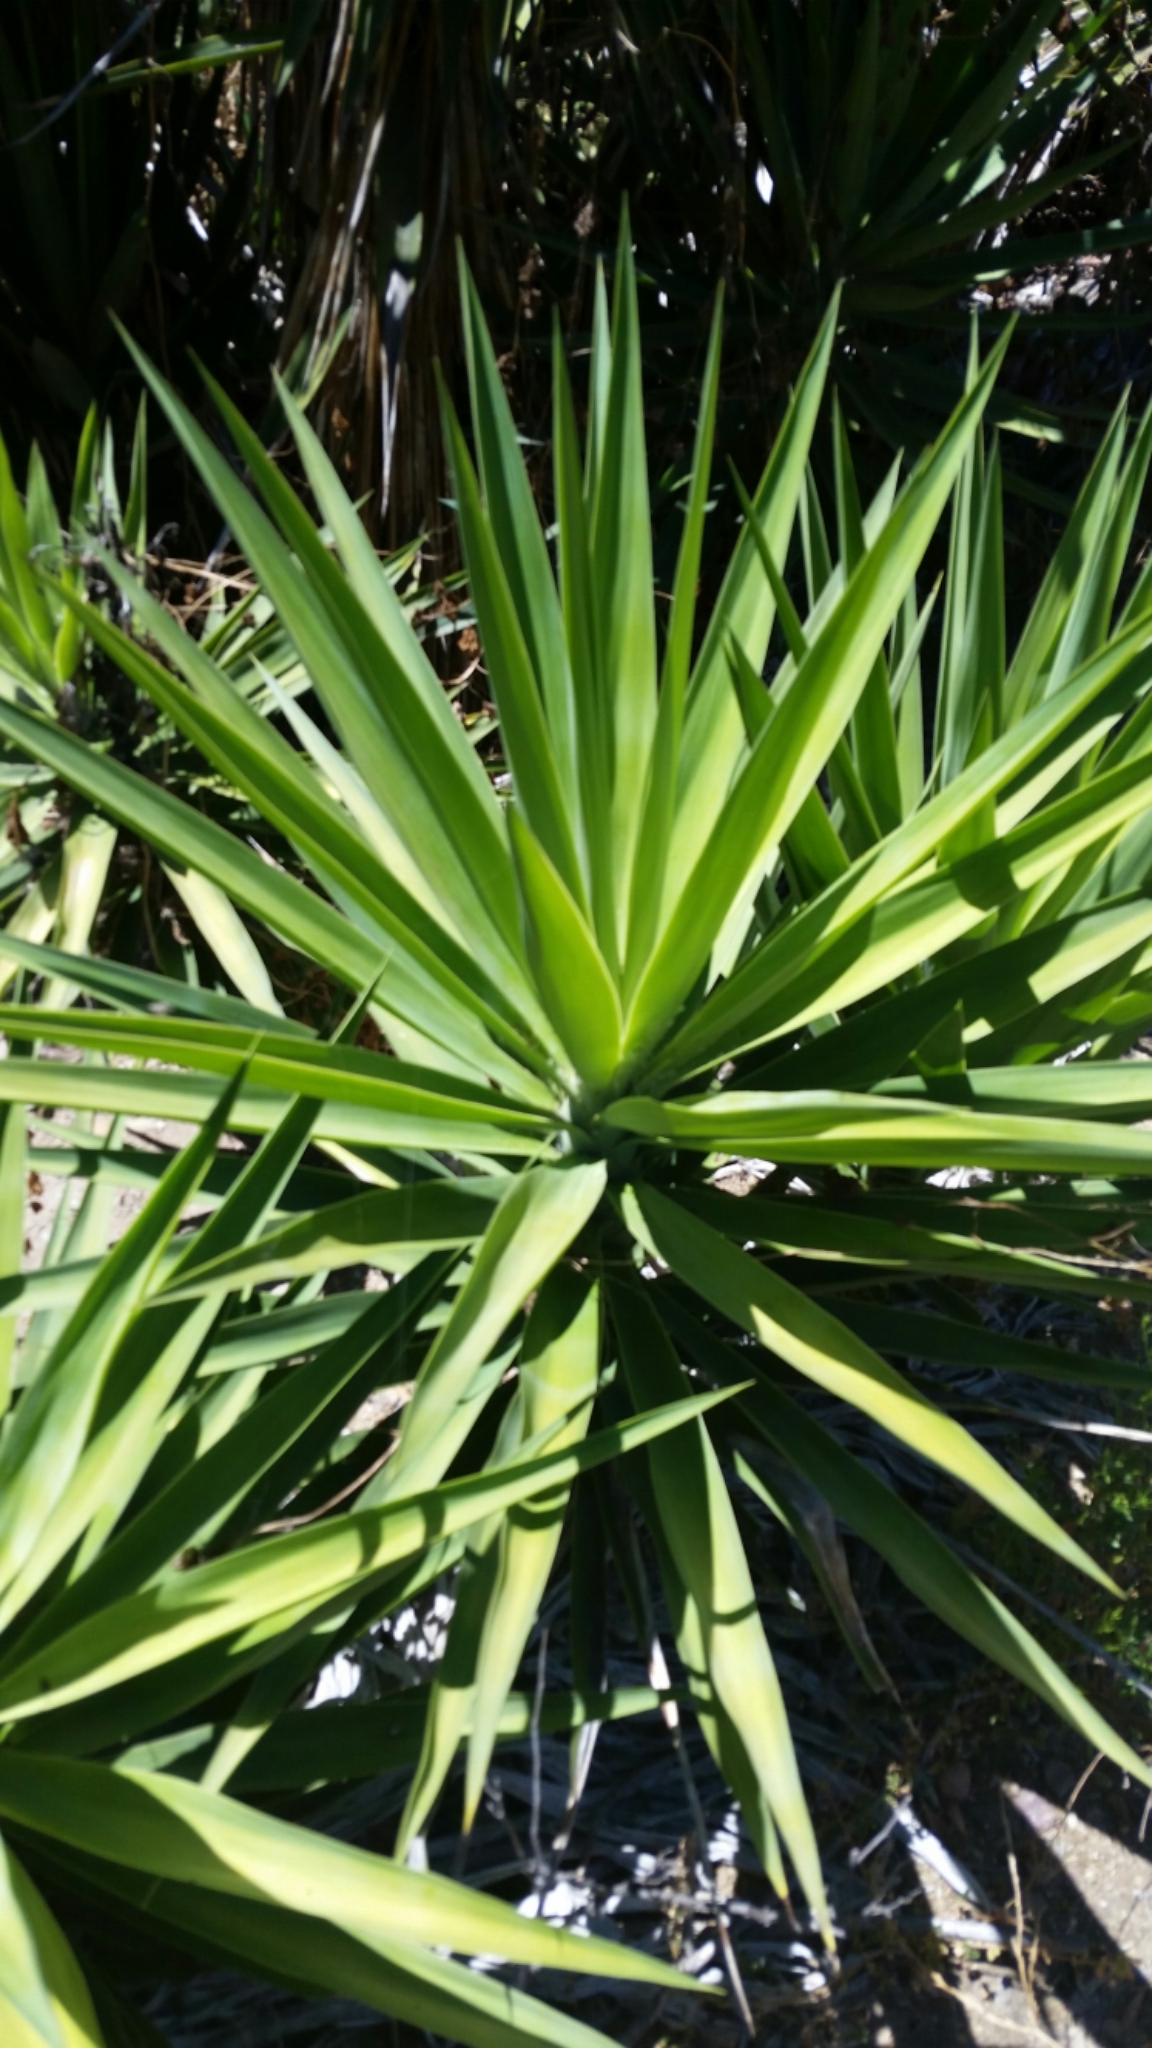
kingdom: Plantae
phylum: Tracheophyta
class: Liliopsida
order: Asparagales
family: Asparagaceae
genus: Yucca
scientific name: Yucca gigantea
